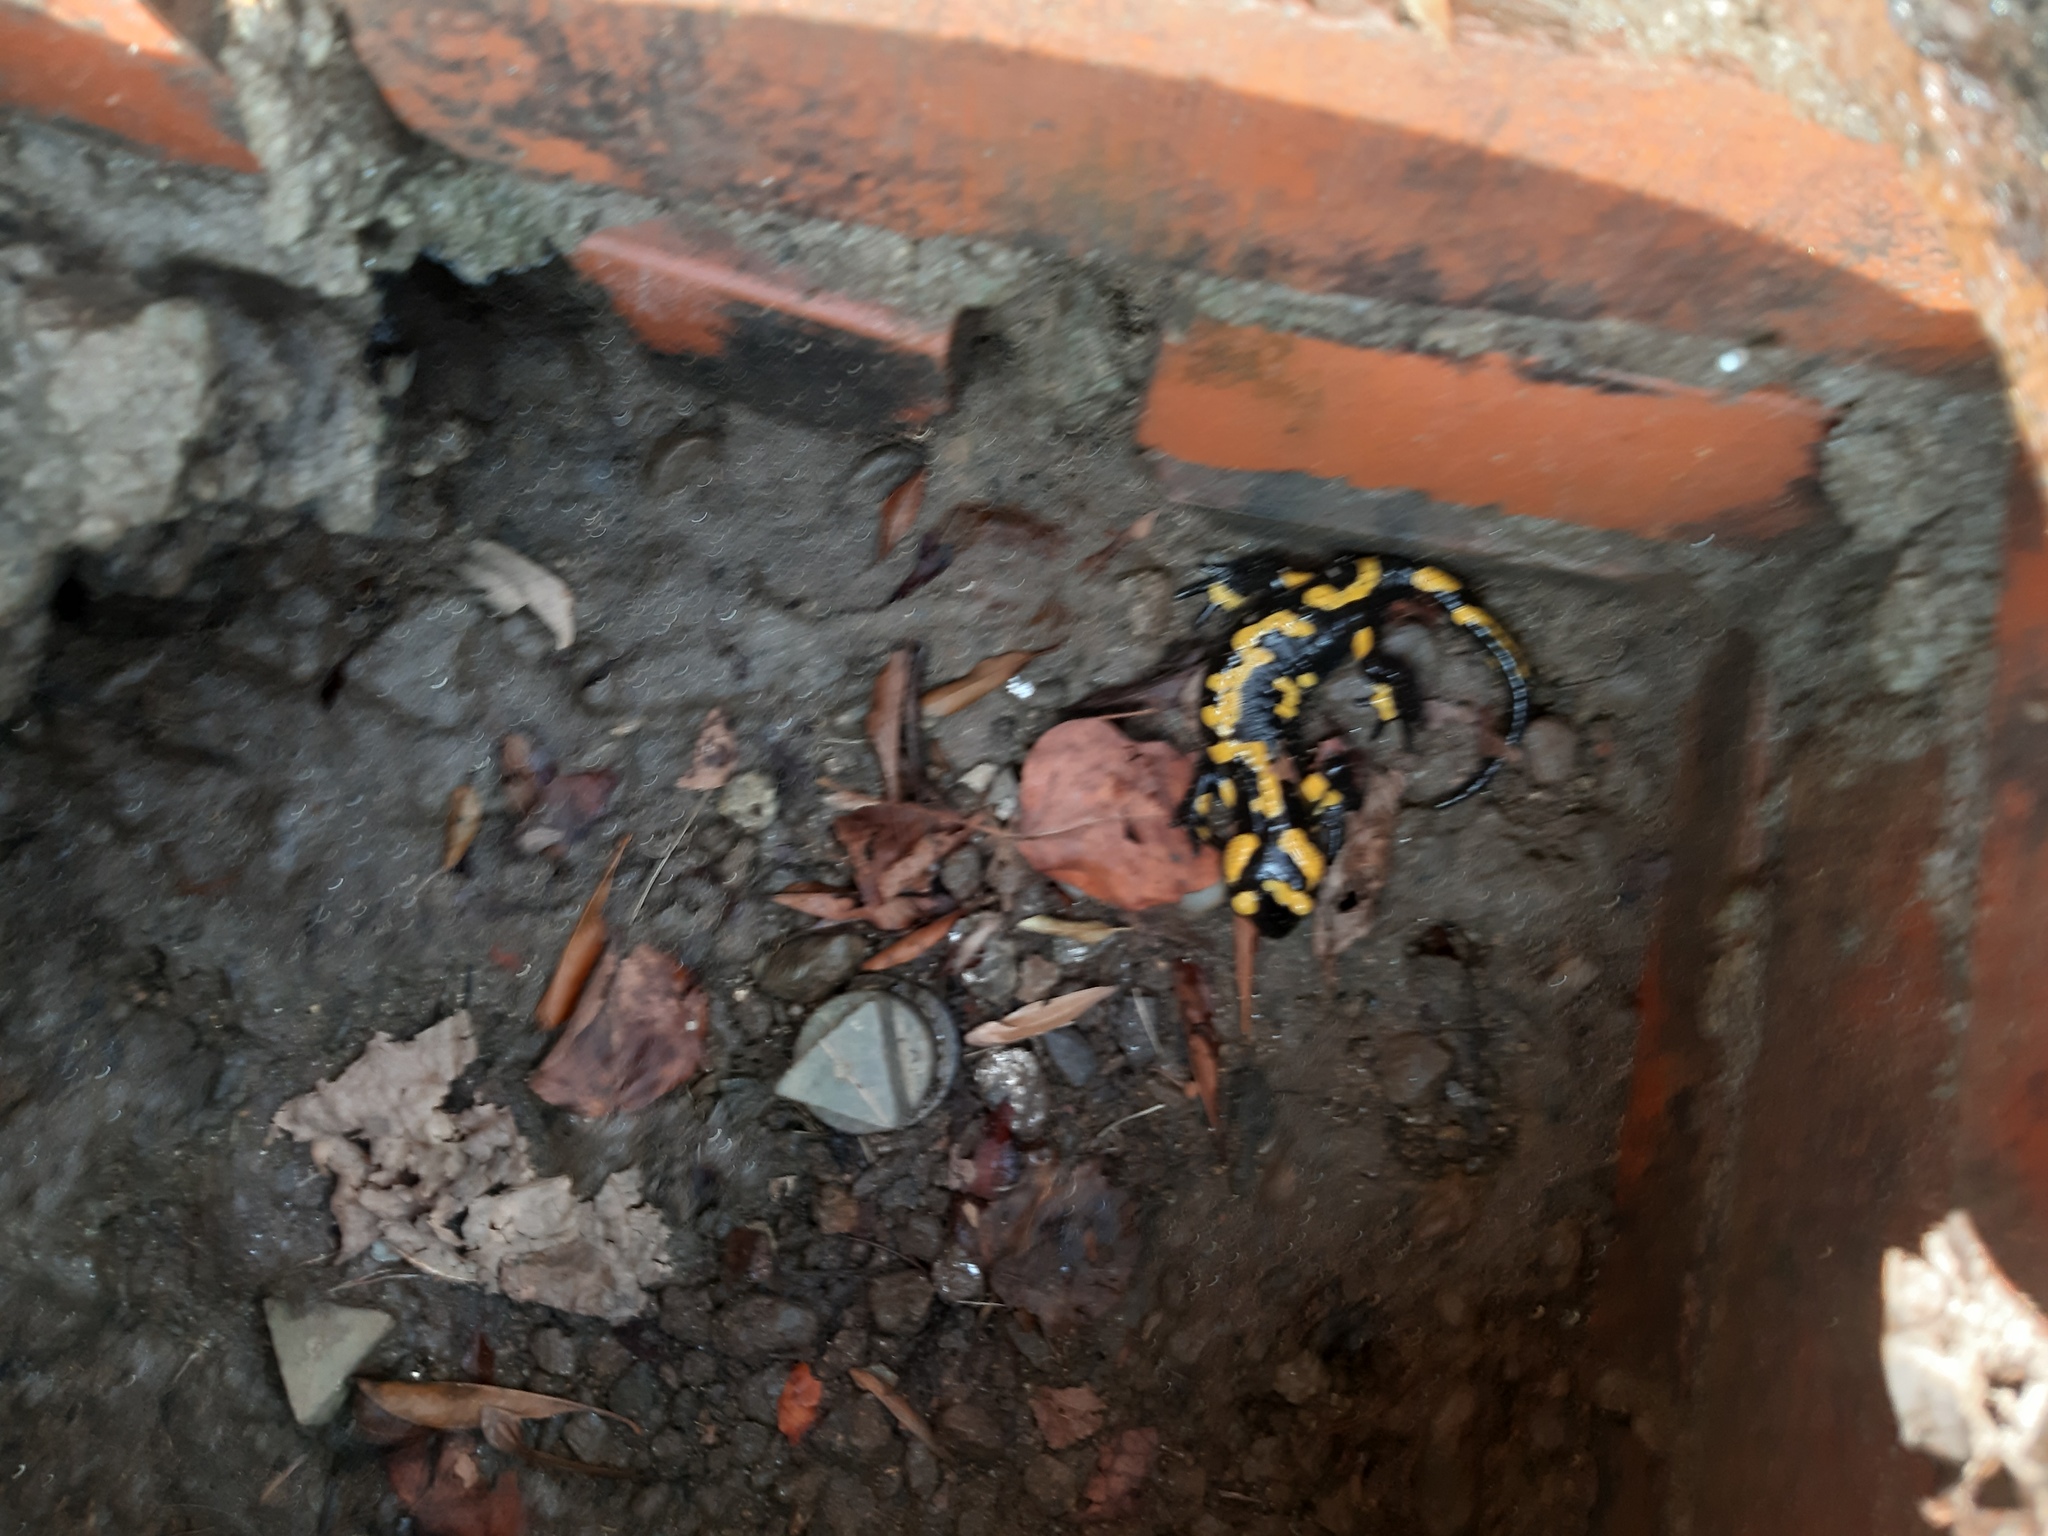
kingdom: Animalia
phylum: Chordata
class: Amphibia
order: Caudata
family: Salamandridae
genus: Salamandra
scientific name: Salamandra salamandra
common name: Fire salamander
